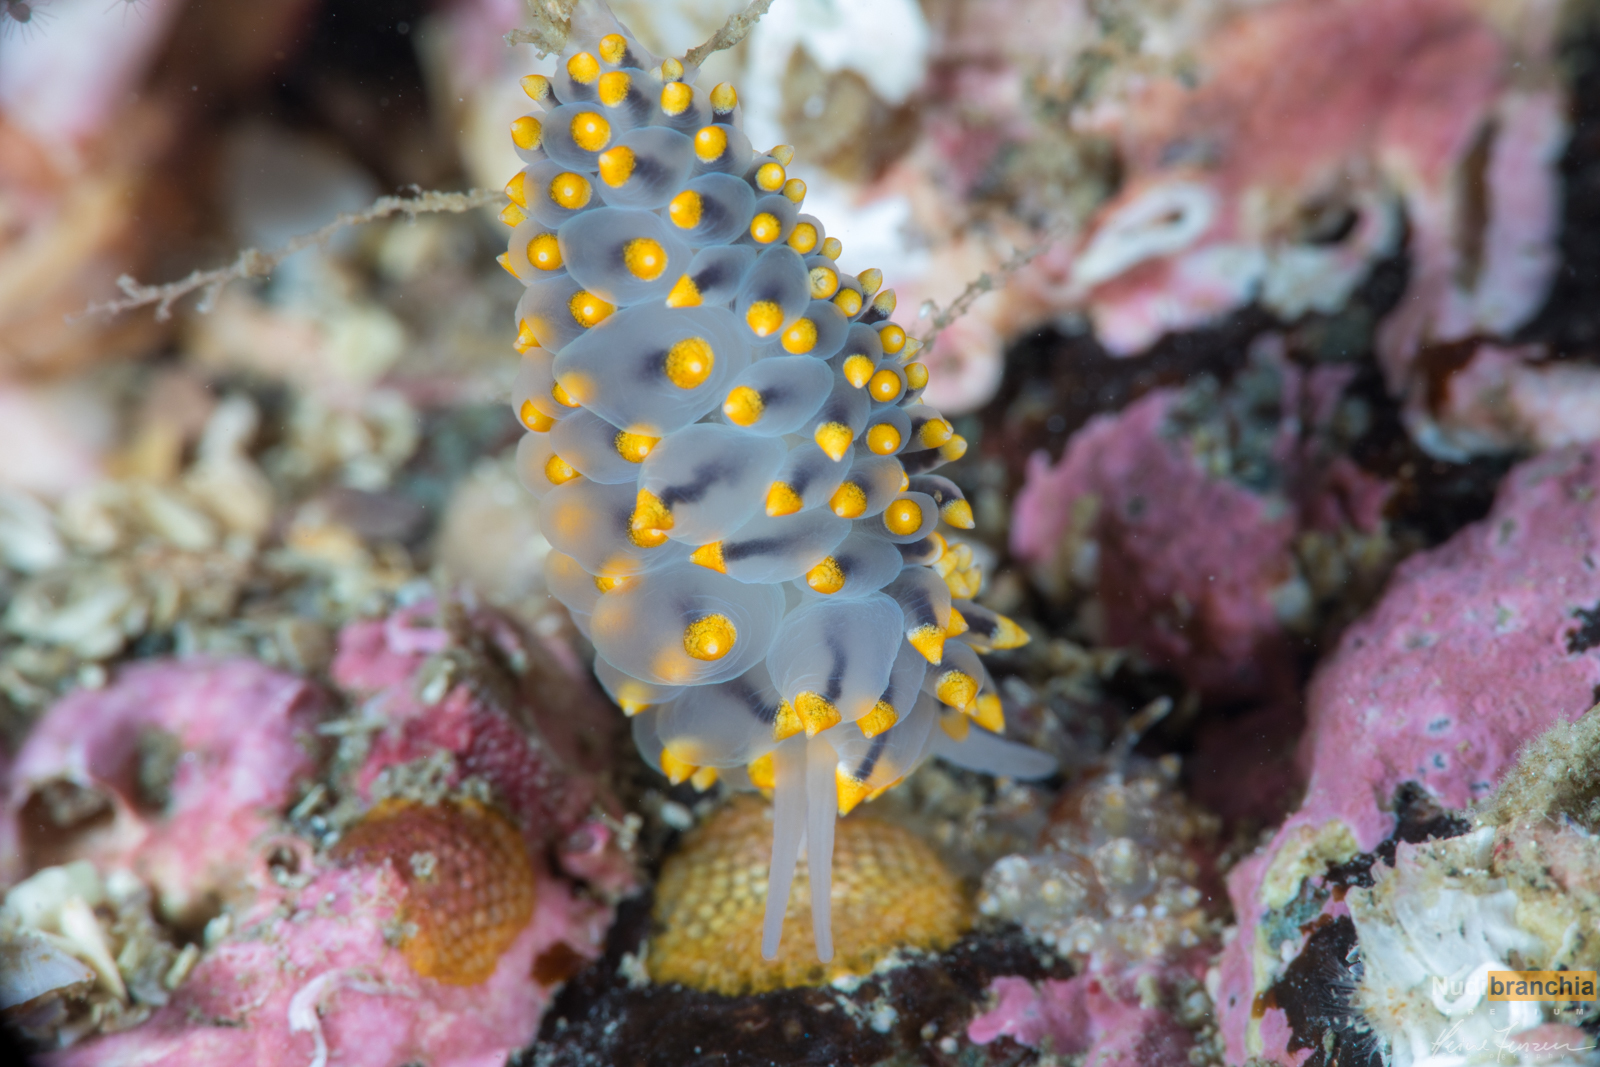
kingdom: Animalia
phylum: Mollusca
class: Gastropoda
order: Nudibranchia
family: Eubranchidae
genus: Eubranchus
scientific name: Eubranchus tricolor
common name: Painted balloon aeolis
